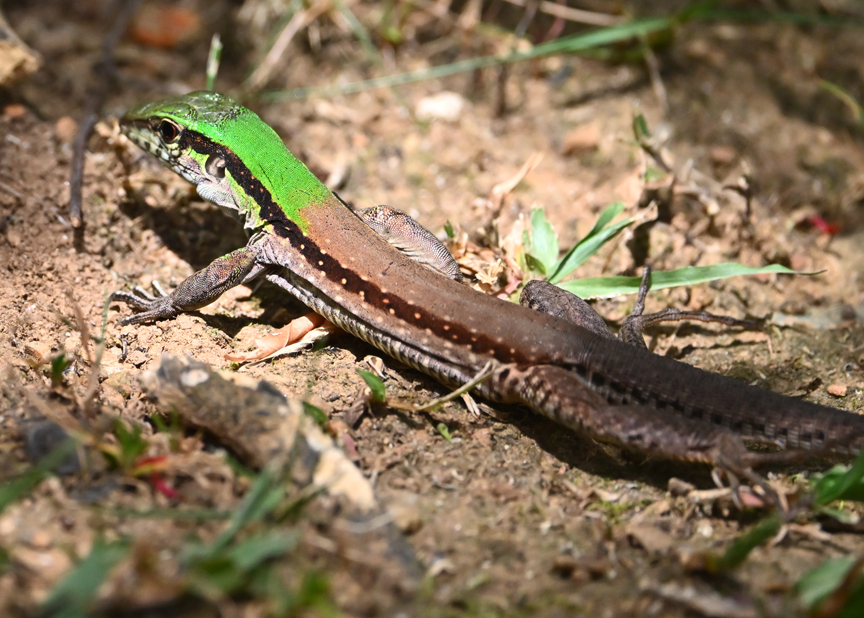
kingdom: Animalia
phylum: Chordata
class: Squamata
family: Teiidae
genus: Ameiva
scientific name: Ameiva atrigularis
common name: Venezuelan ameiva
